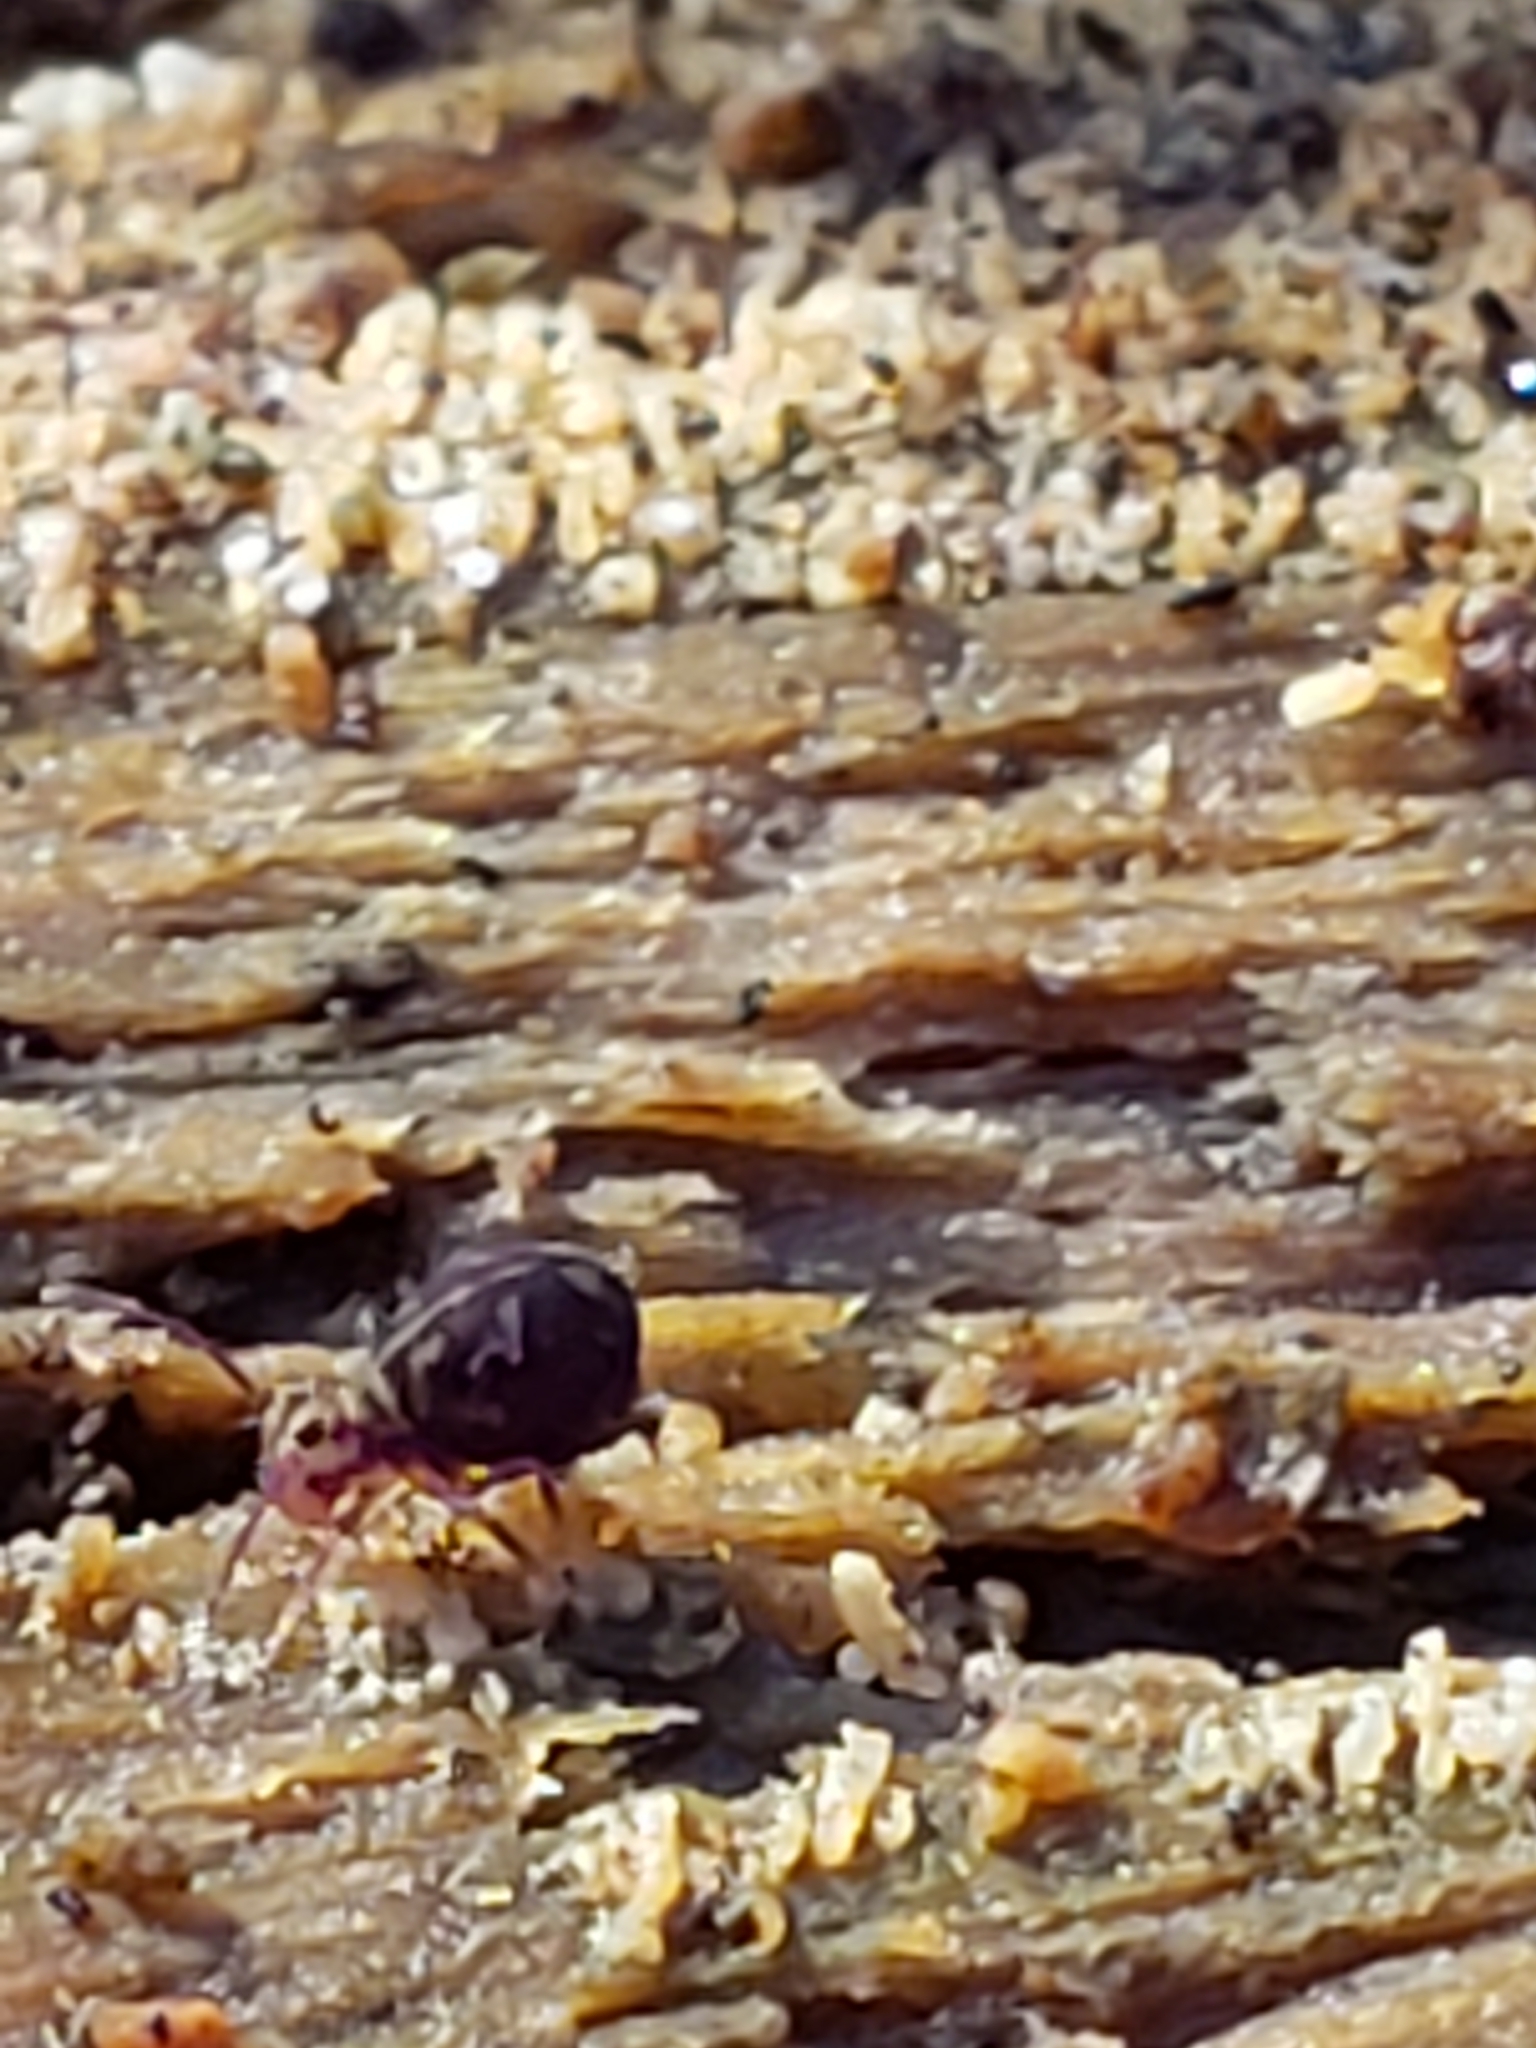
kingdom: Animalia
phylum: Arthropoda
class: Collembola
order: Symphypleona
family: Dicyrtomidae
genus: Dicyrtomina
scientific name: Dicyrtomina minuta
